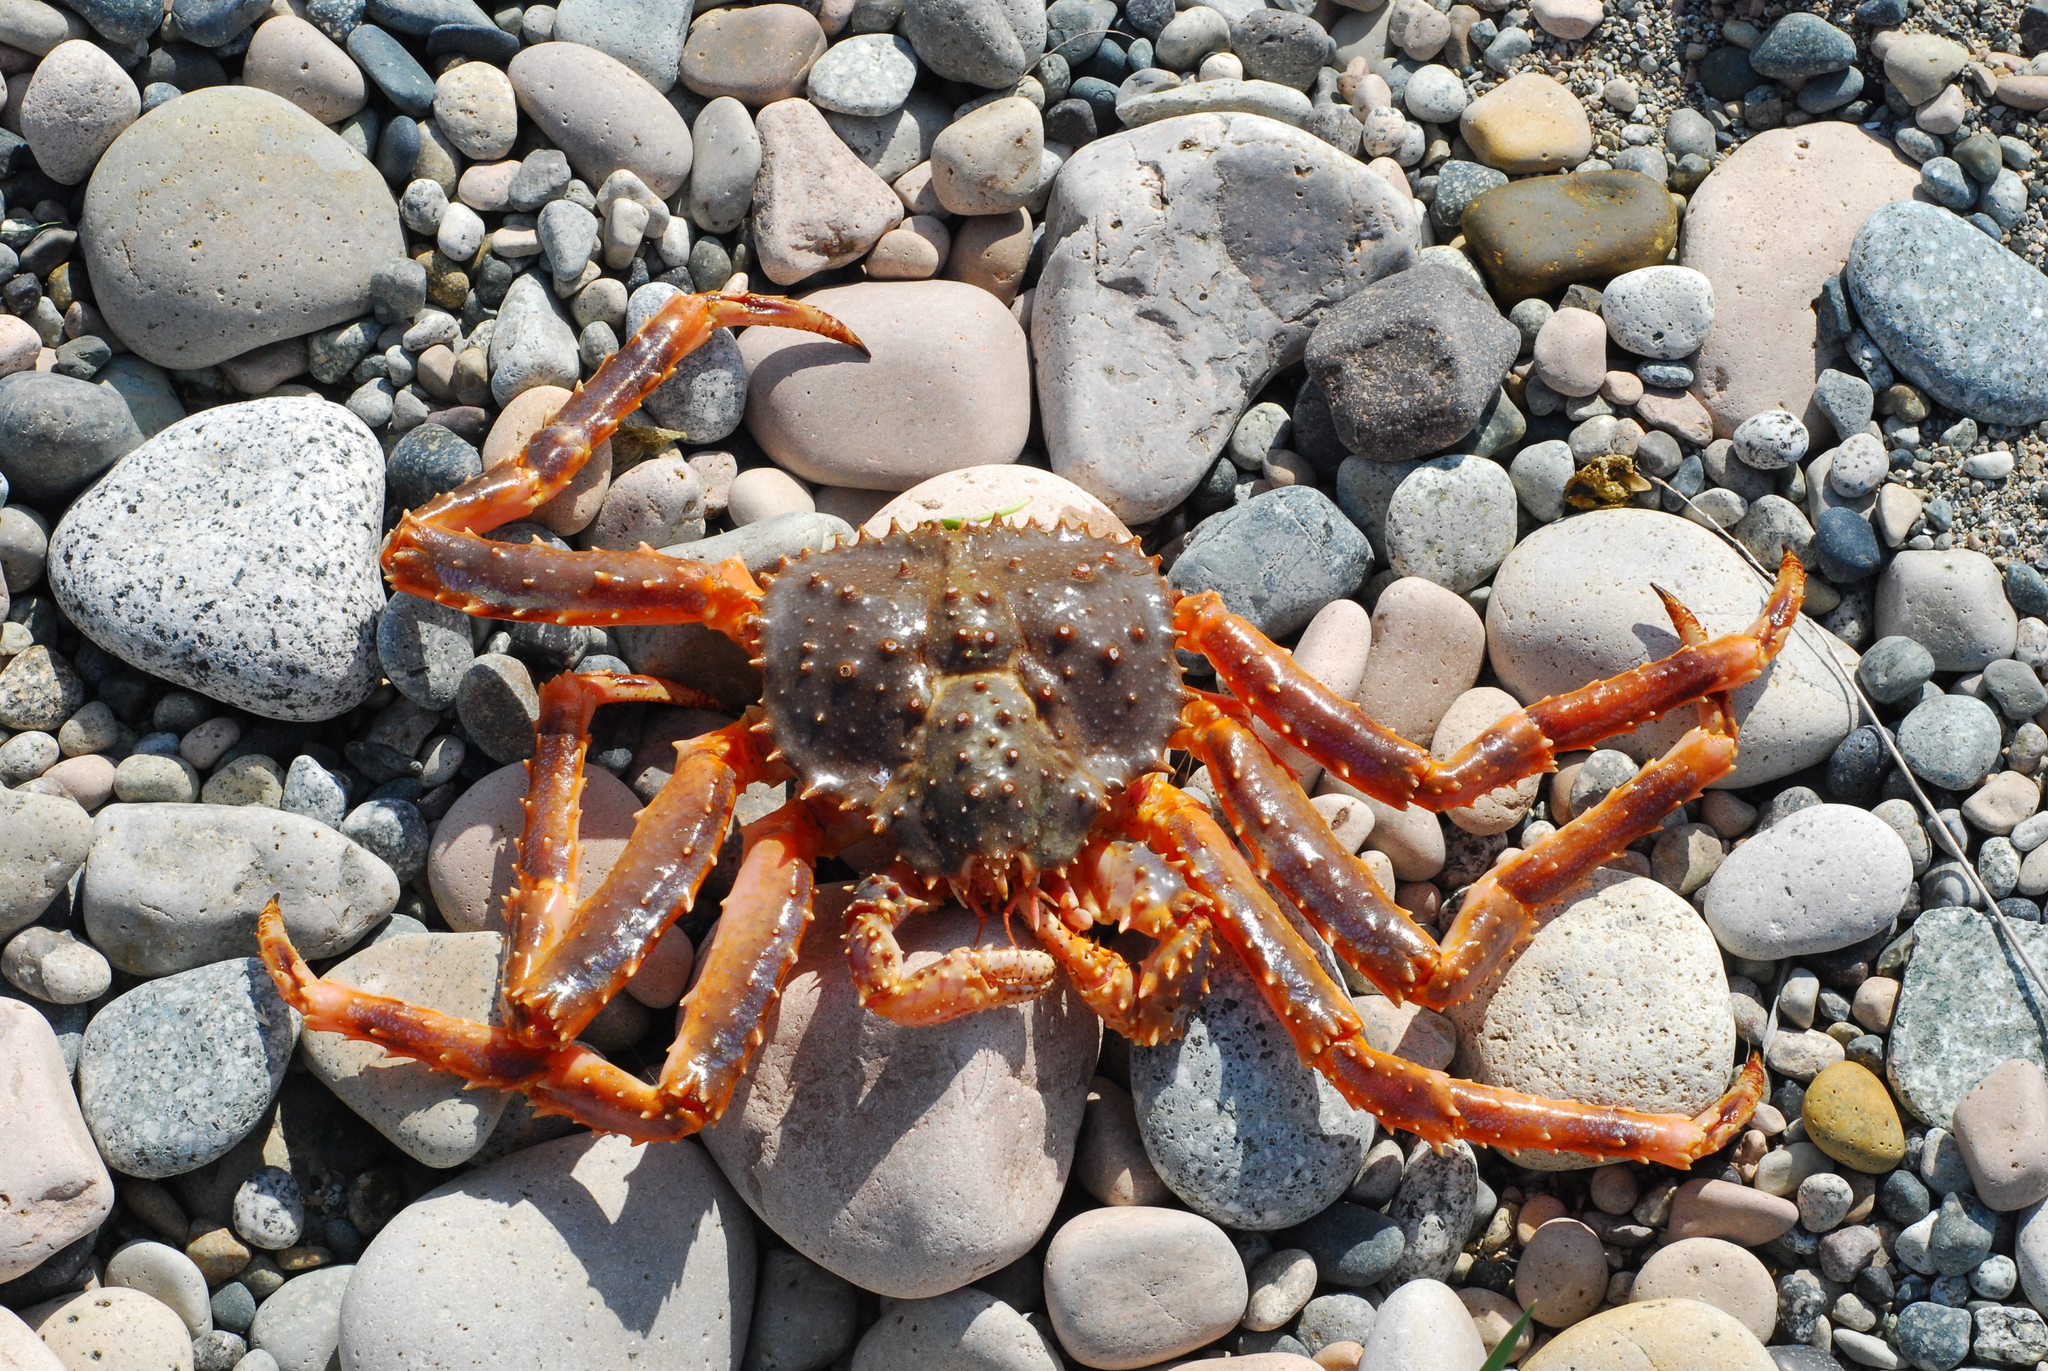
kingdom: Animalia
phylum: Arthropoda
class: Malacostraca
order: Decapoda
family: Lithodidae
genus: Paralithodes
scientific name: Paralithodes platypus
